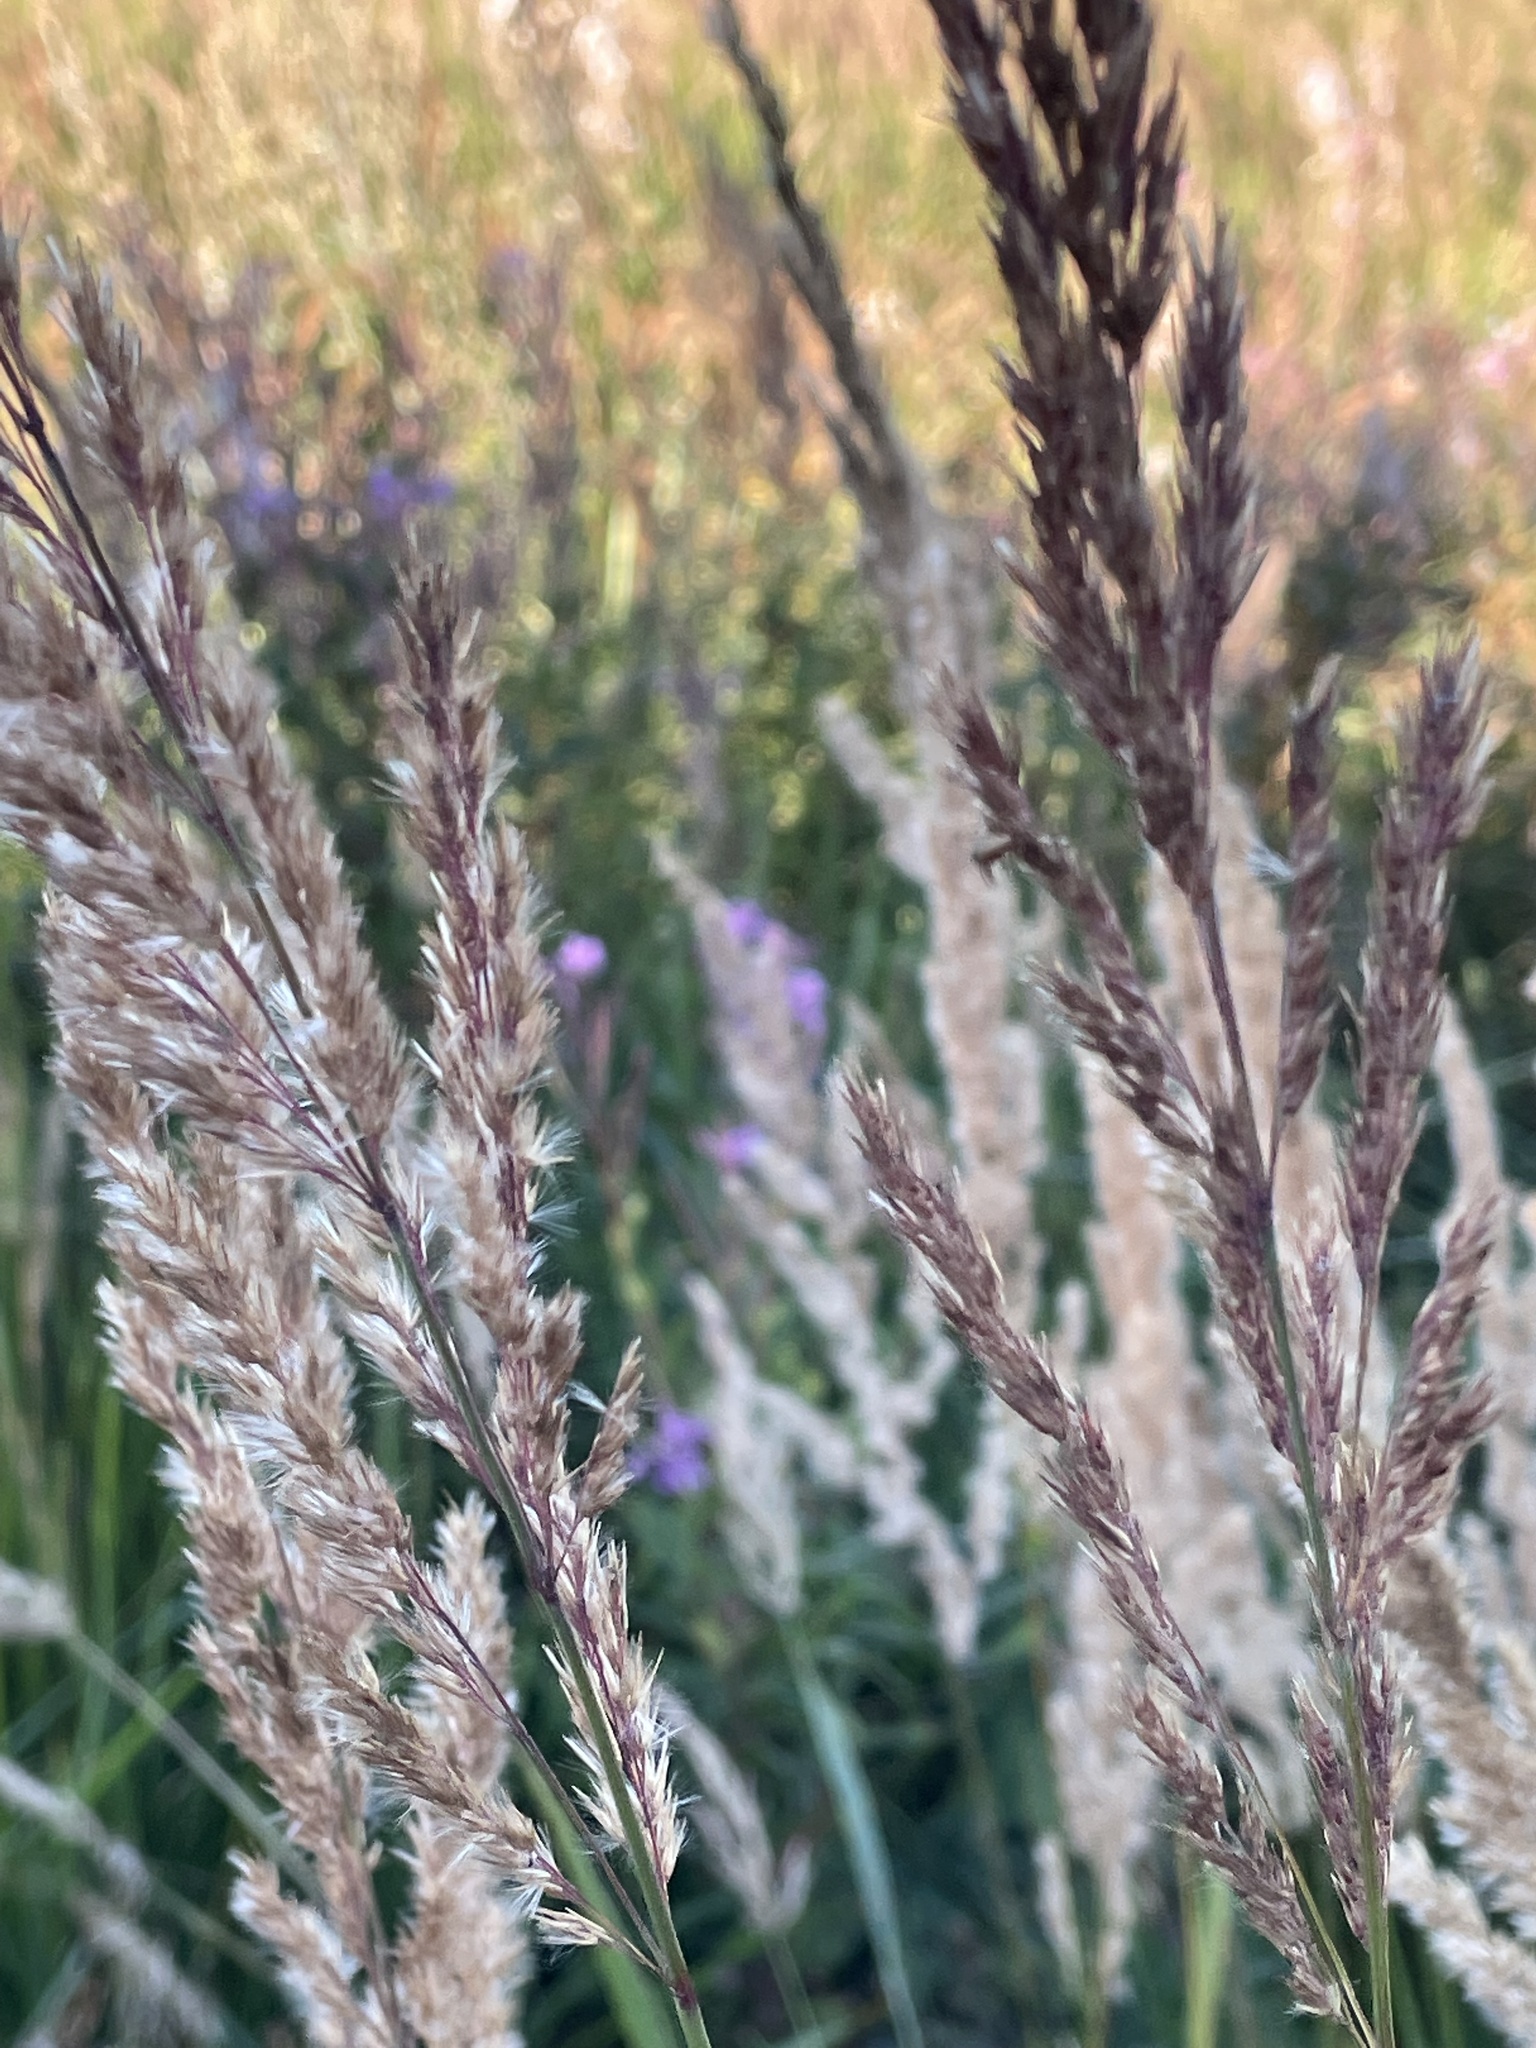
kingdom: Plantae
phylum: Tracheophyta
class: Liliopsida
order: Poales
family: Poaceae
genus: Calamagrostis
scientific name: Calamagrostis epigejos
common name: Wood small-reed
